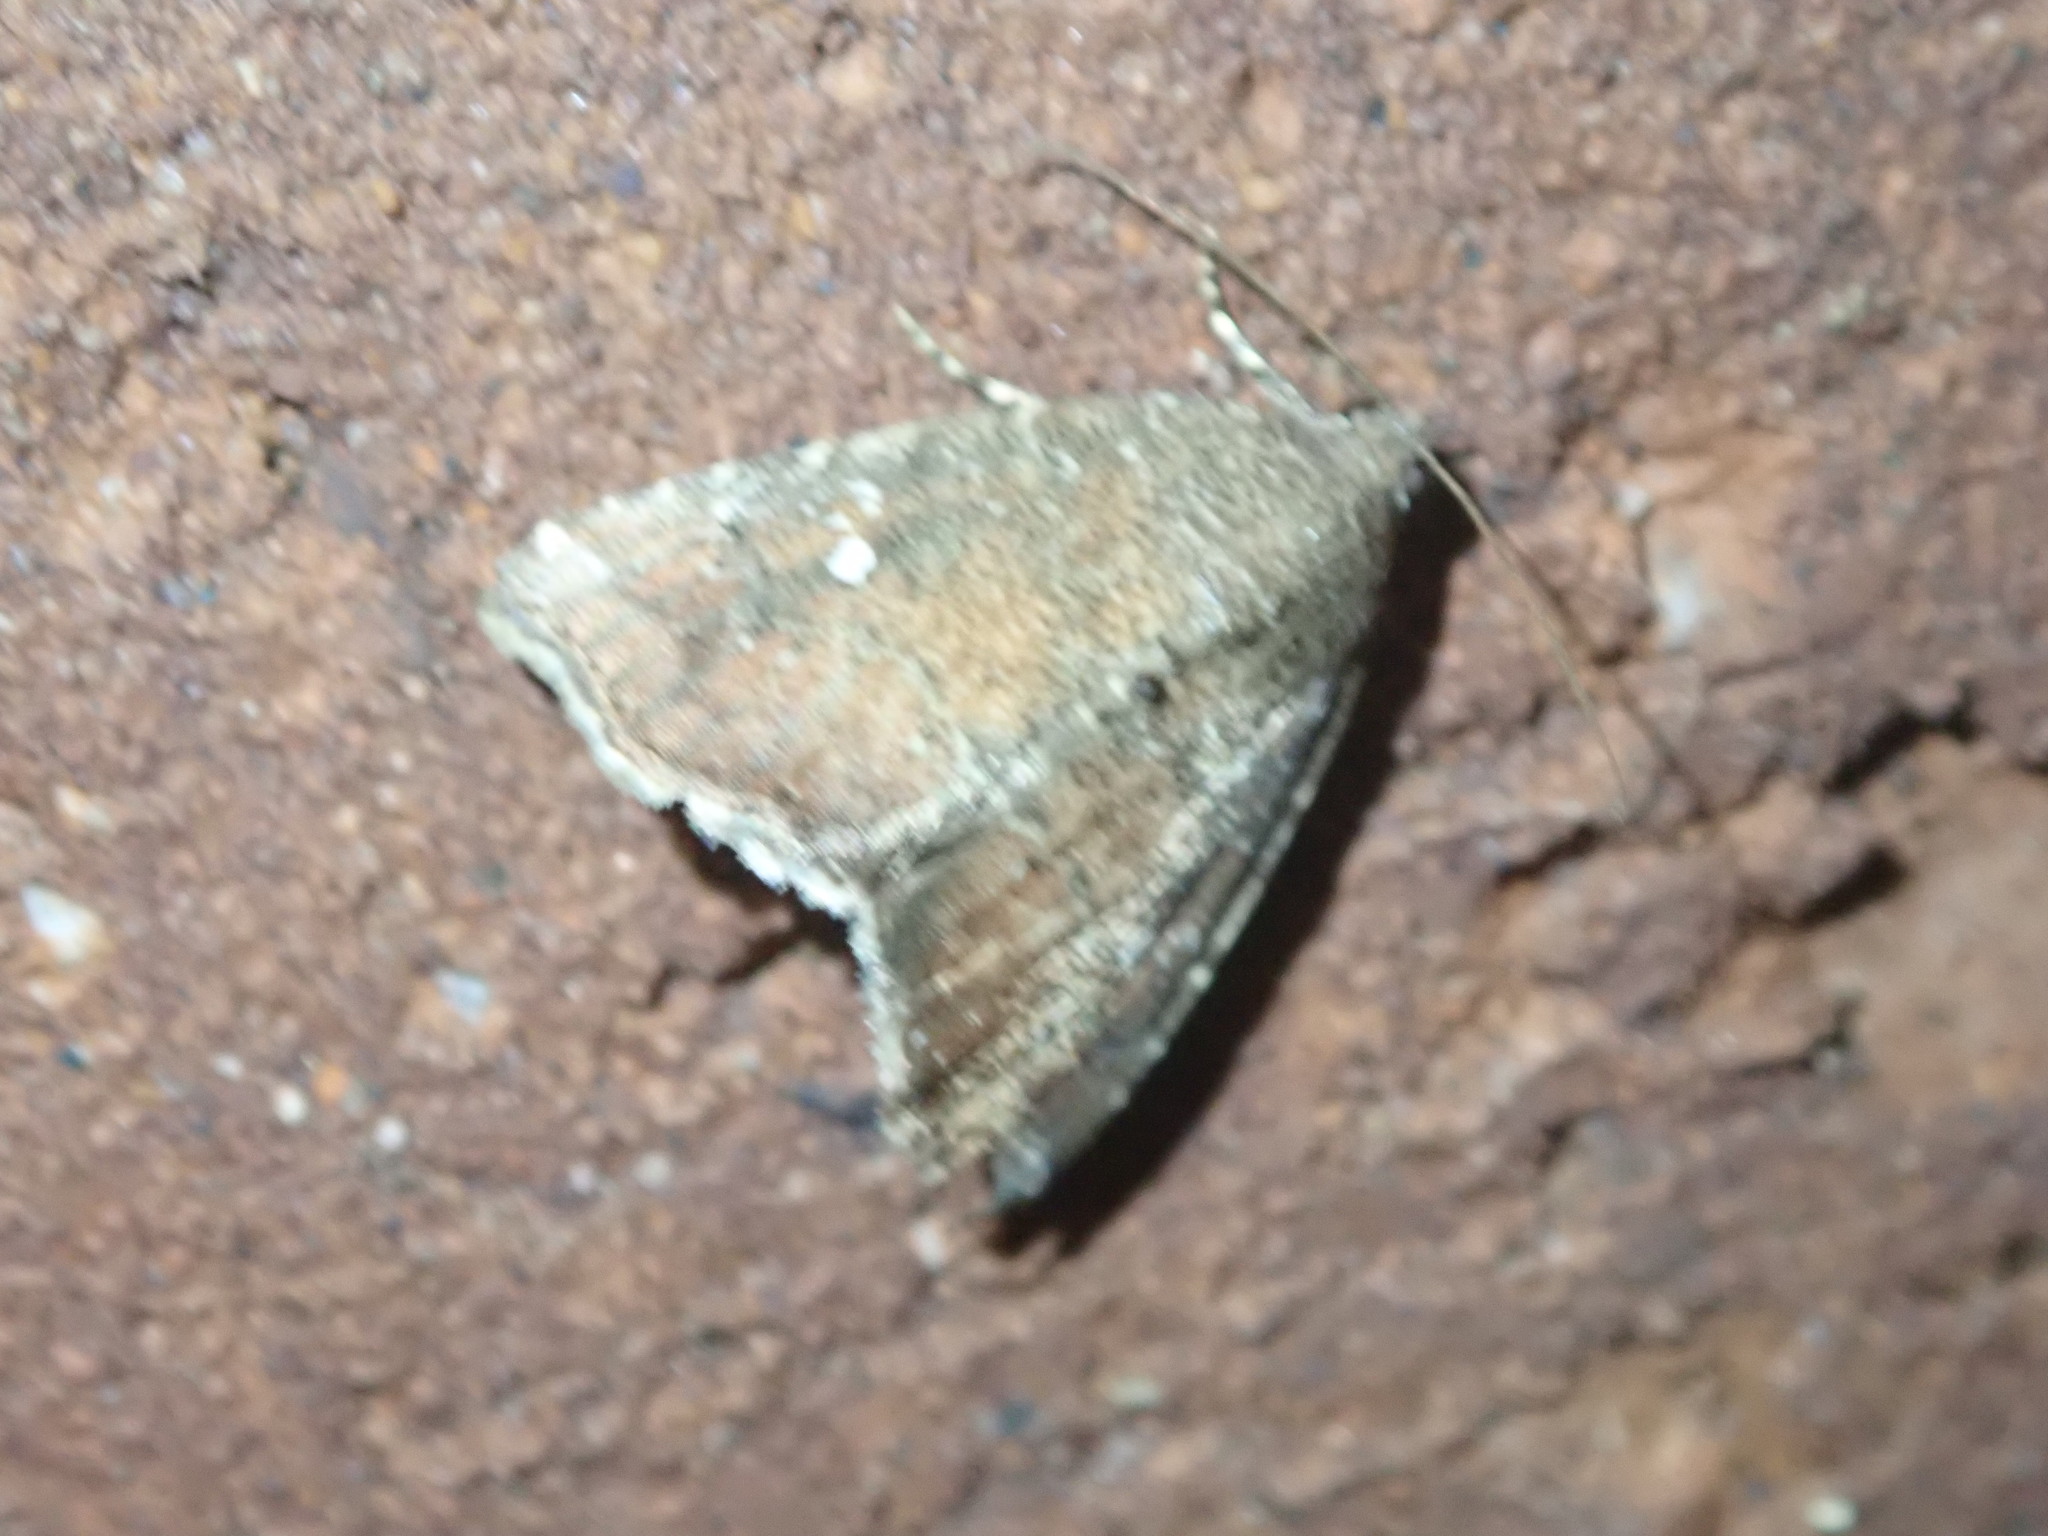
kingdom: Animalia
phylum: Arthropoda
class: Insecta
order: Lepidoptera
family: Noctuidae
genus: Amyna
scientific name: Amyna bullula
